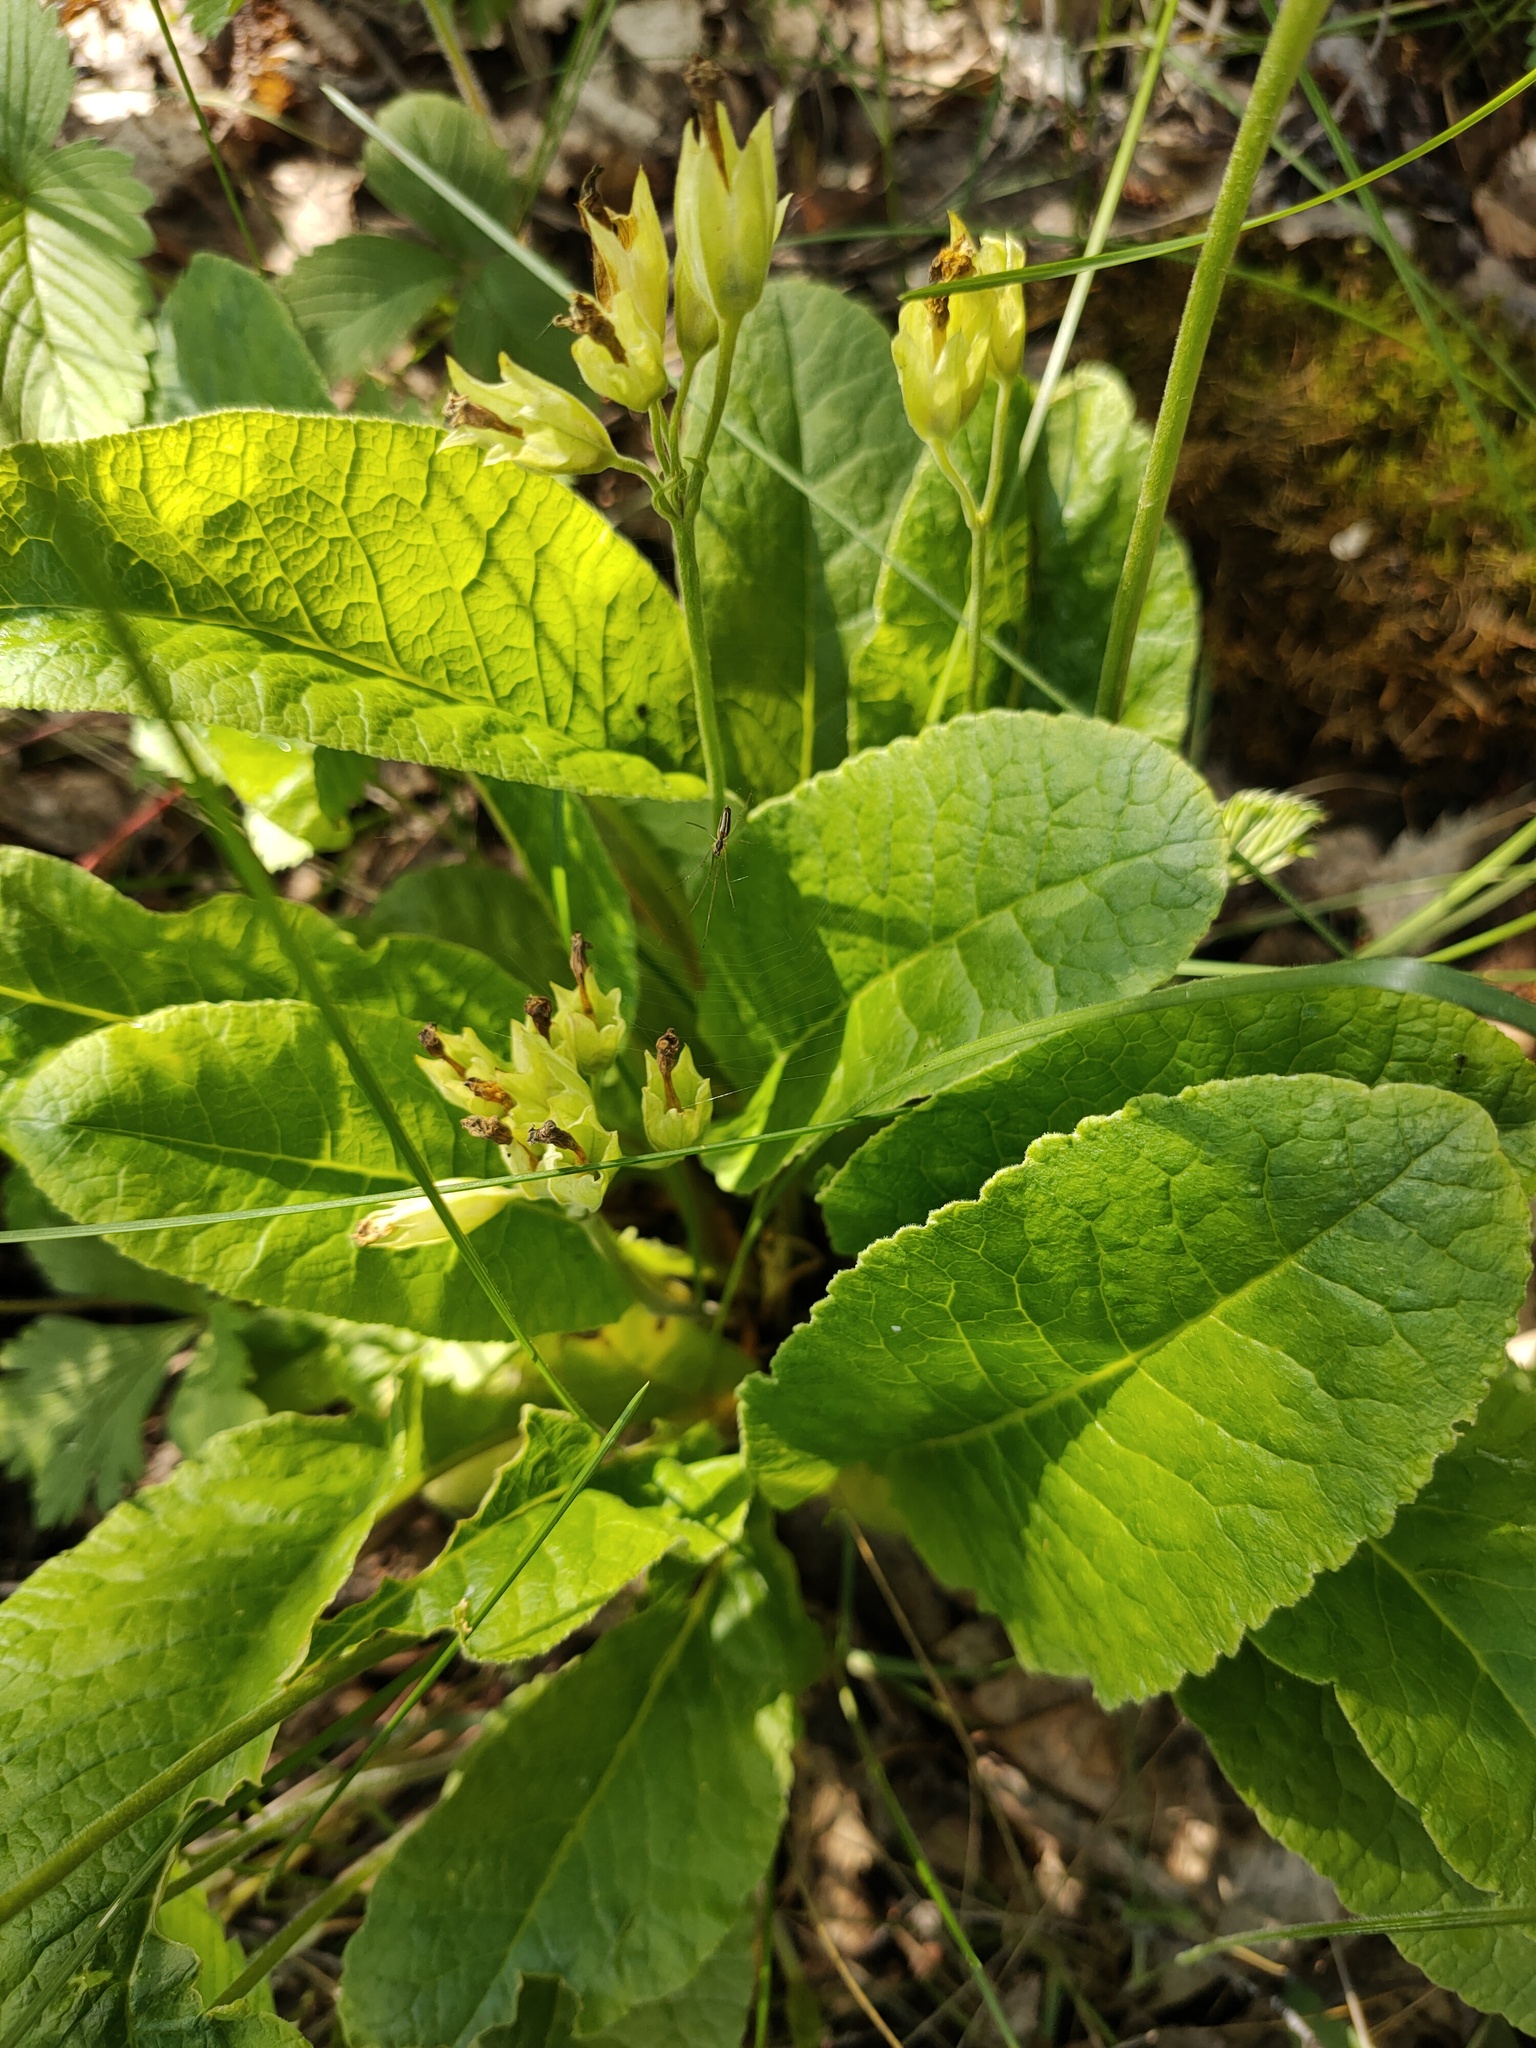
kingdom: Plantae
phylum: Tracheophyta
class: Magnoliopsida
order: Ericales
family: Primulaceae
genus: Primula
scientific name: Primula veris
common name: Cowslip
